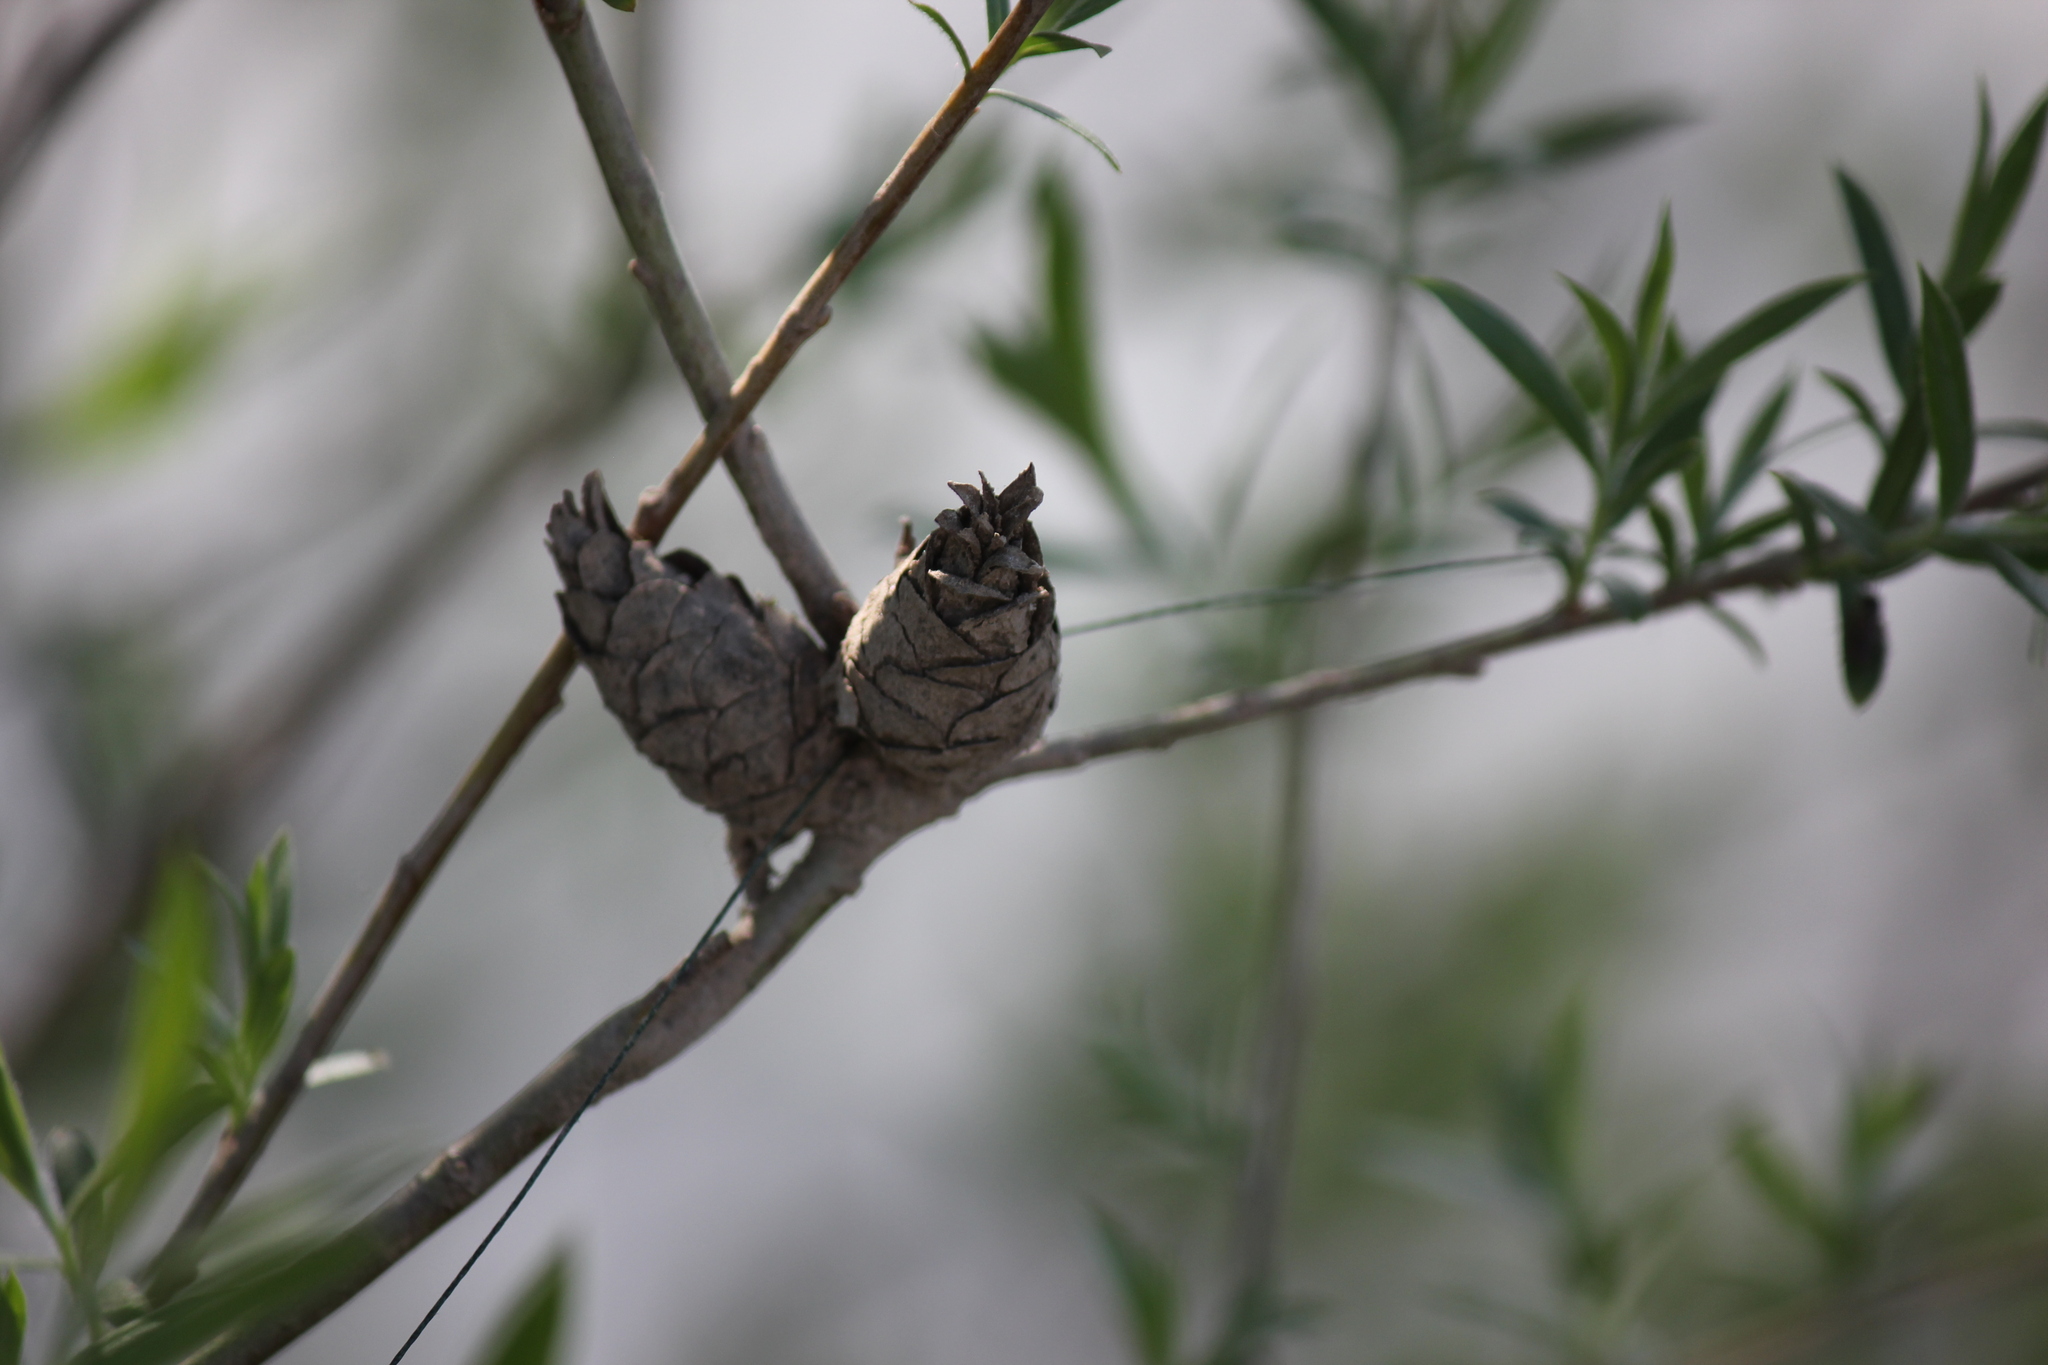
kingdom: Animalia
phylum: Arthropoda
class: Insecta
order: Diptera
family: Cecidomyiidae
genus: Rabdophaga
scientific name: Rabdophaga strobiloides
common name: Willow pinecone gall midge
